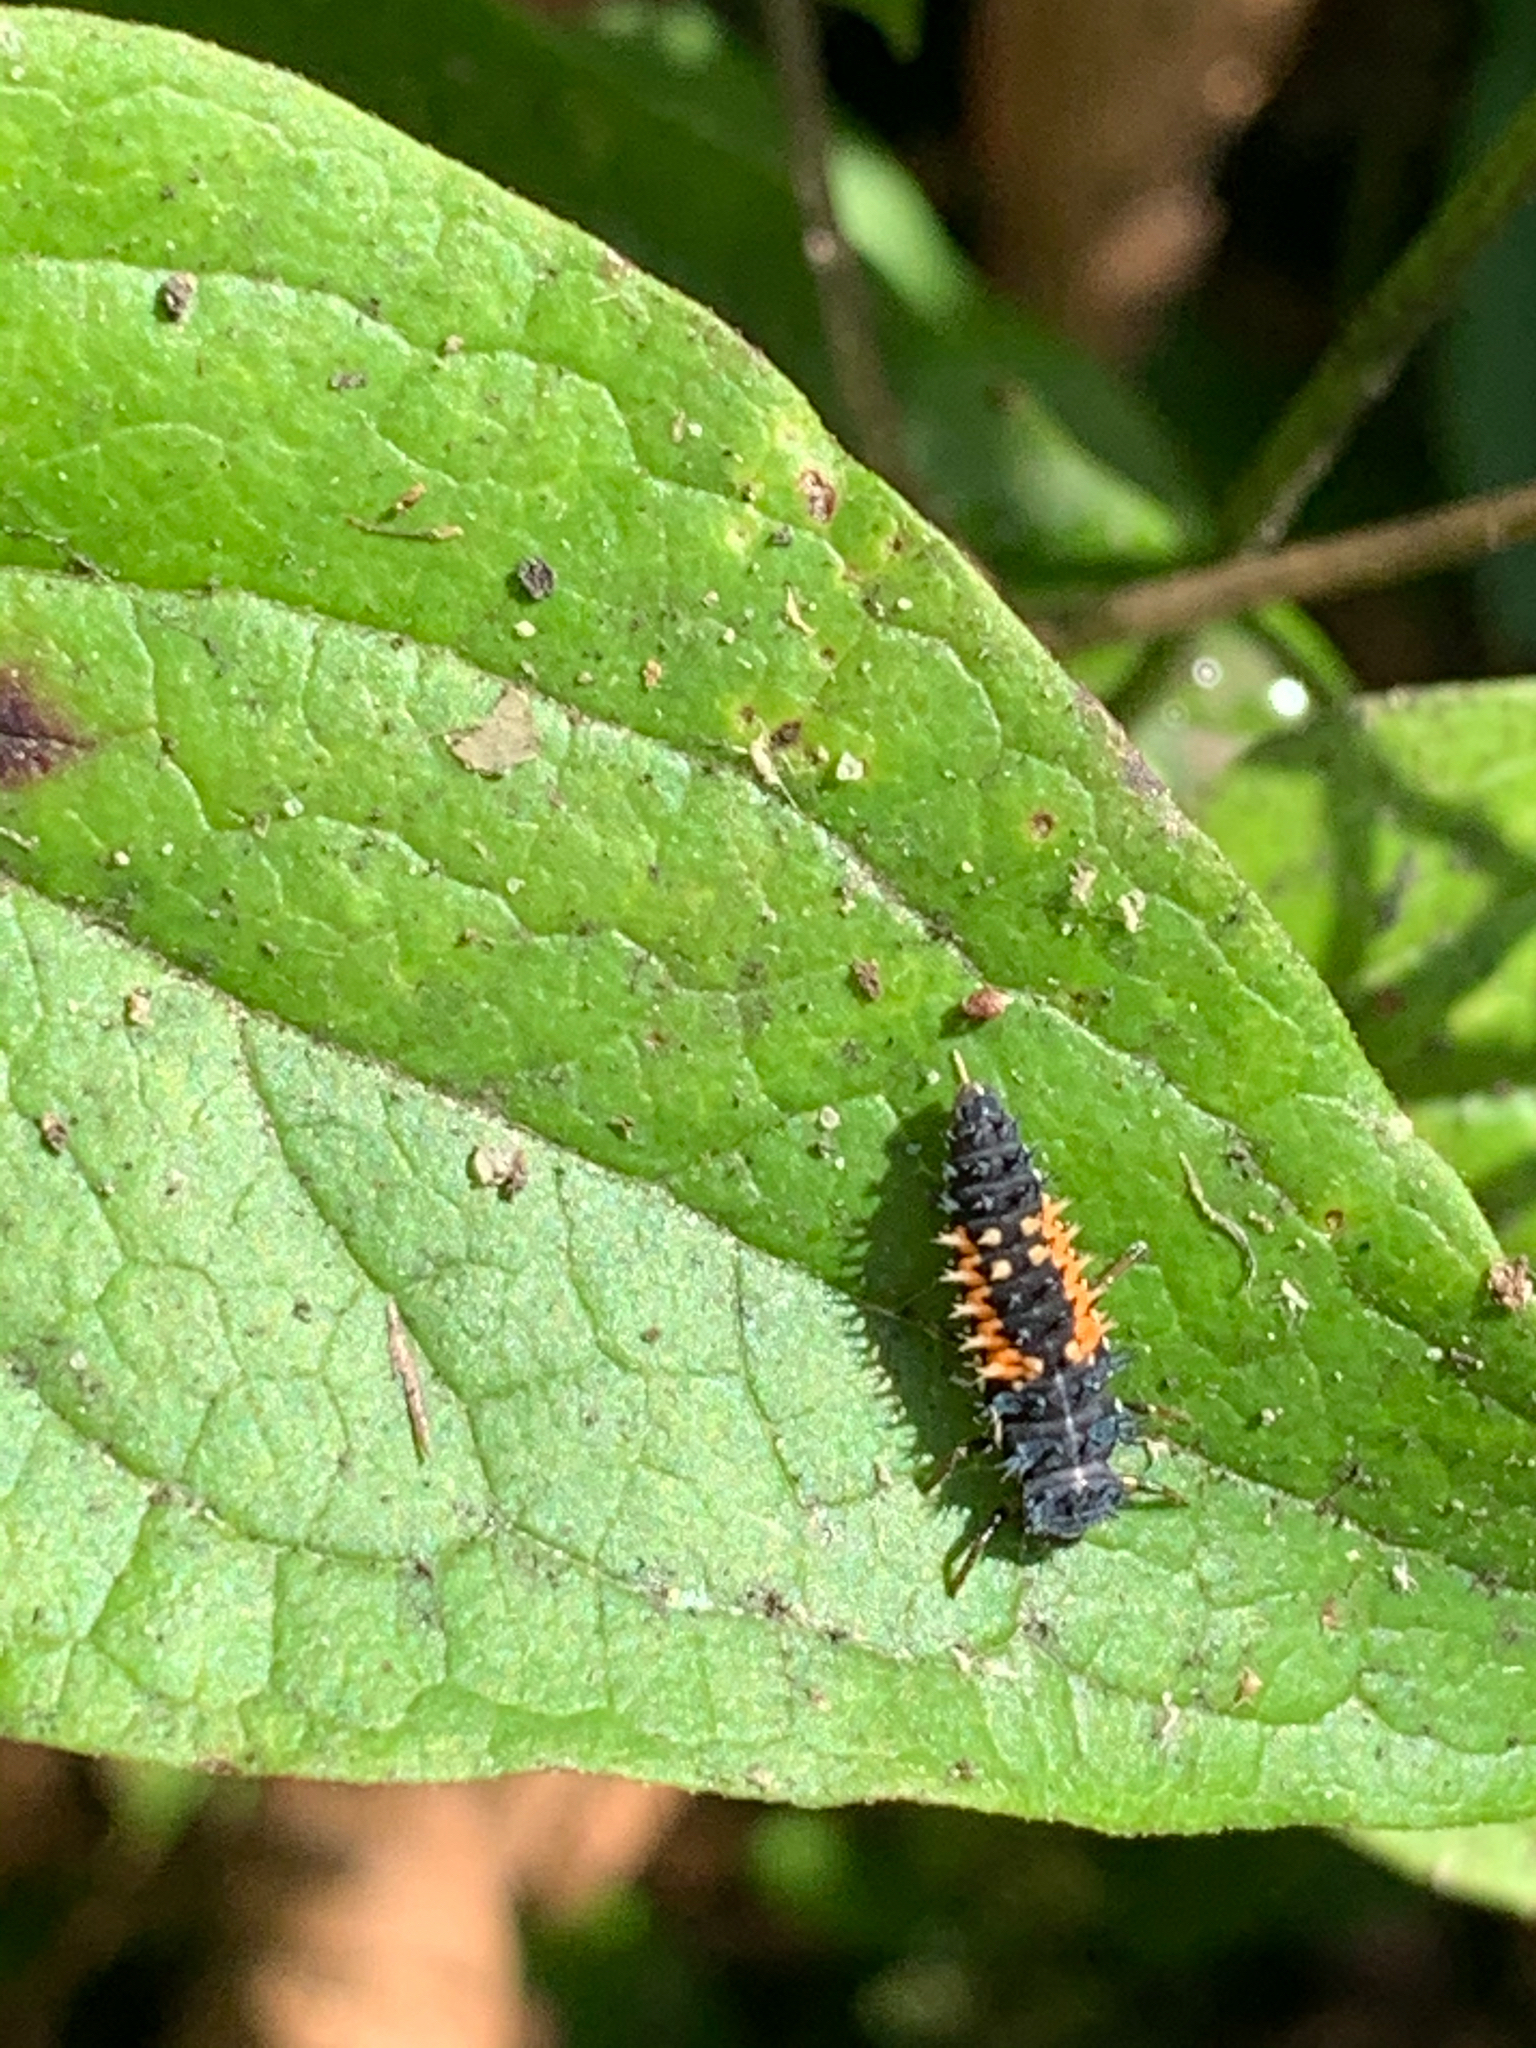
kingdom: Animalia
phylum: Arthropoda
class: Insecta
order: Coleoptera
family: Coccinellidae
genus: Harmonia
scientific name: Harmonia axyridis
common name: Harlequin ladybird
